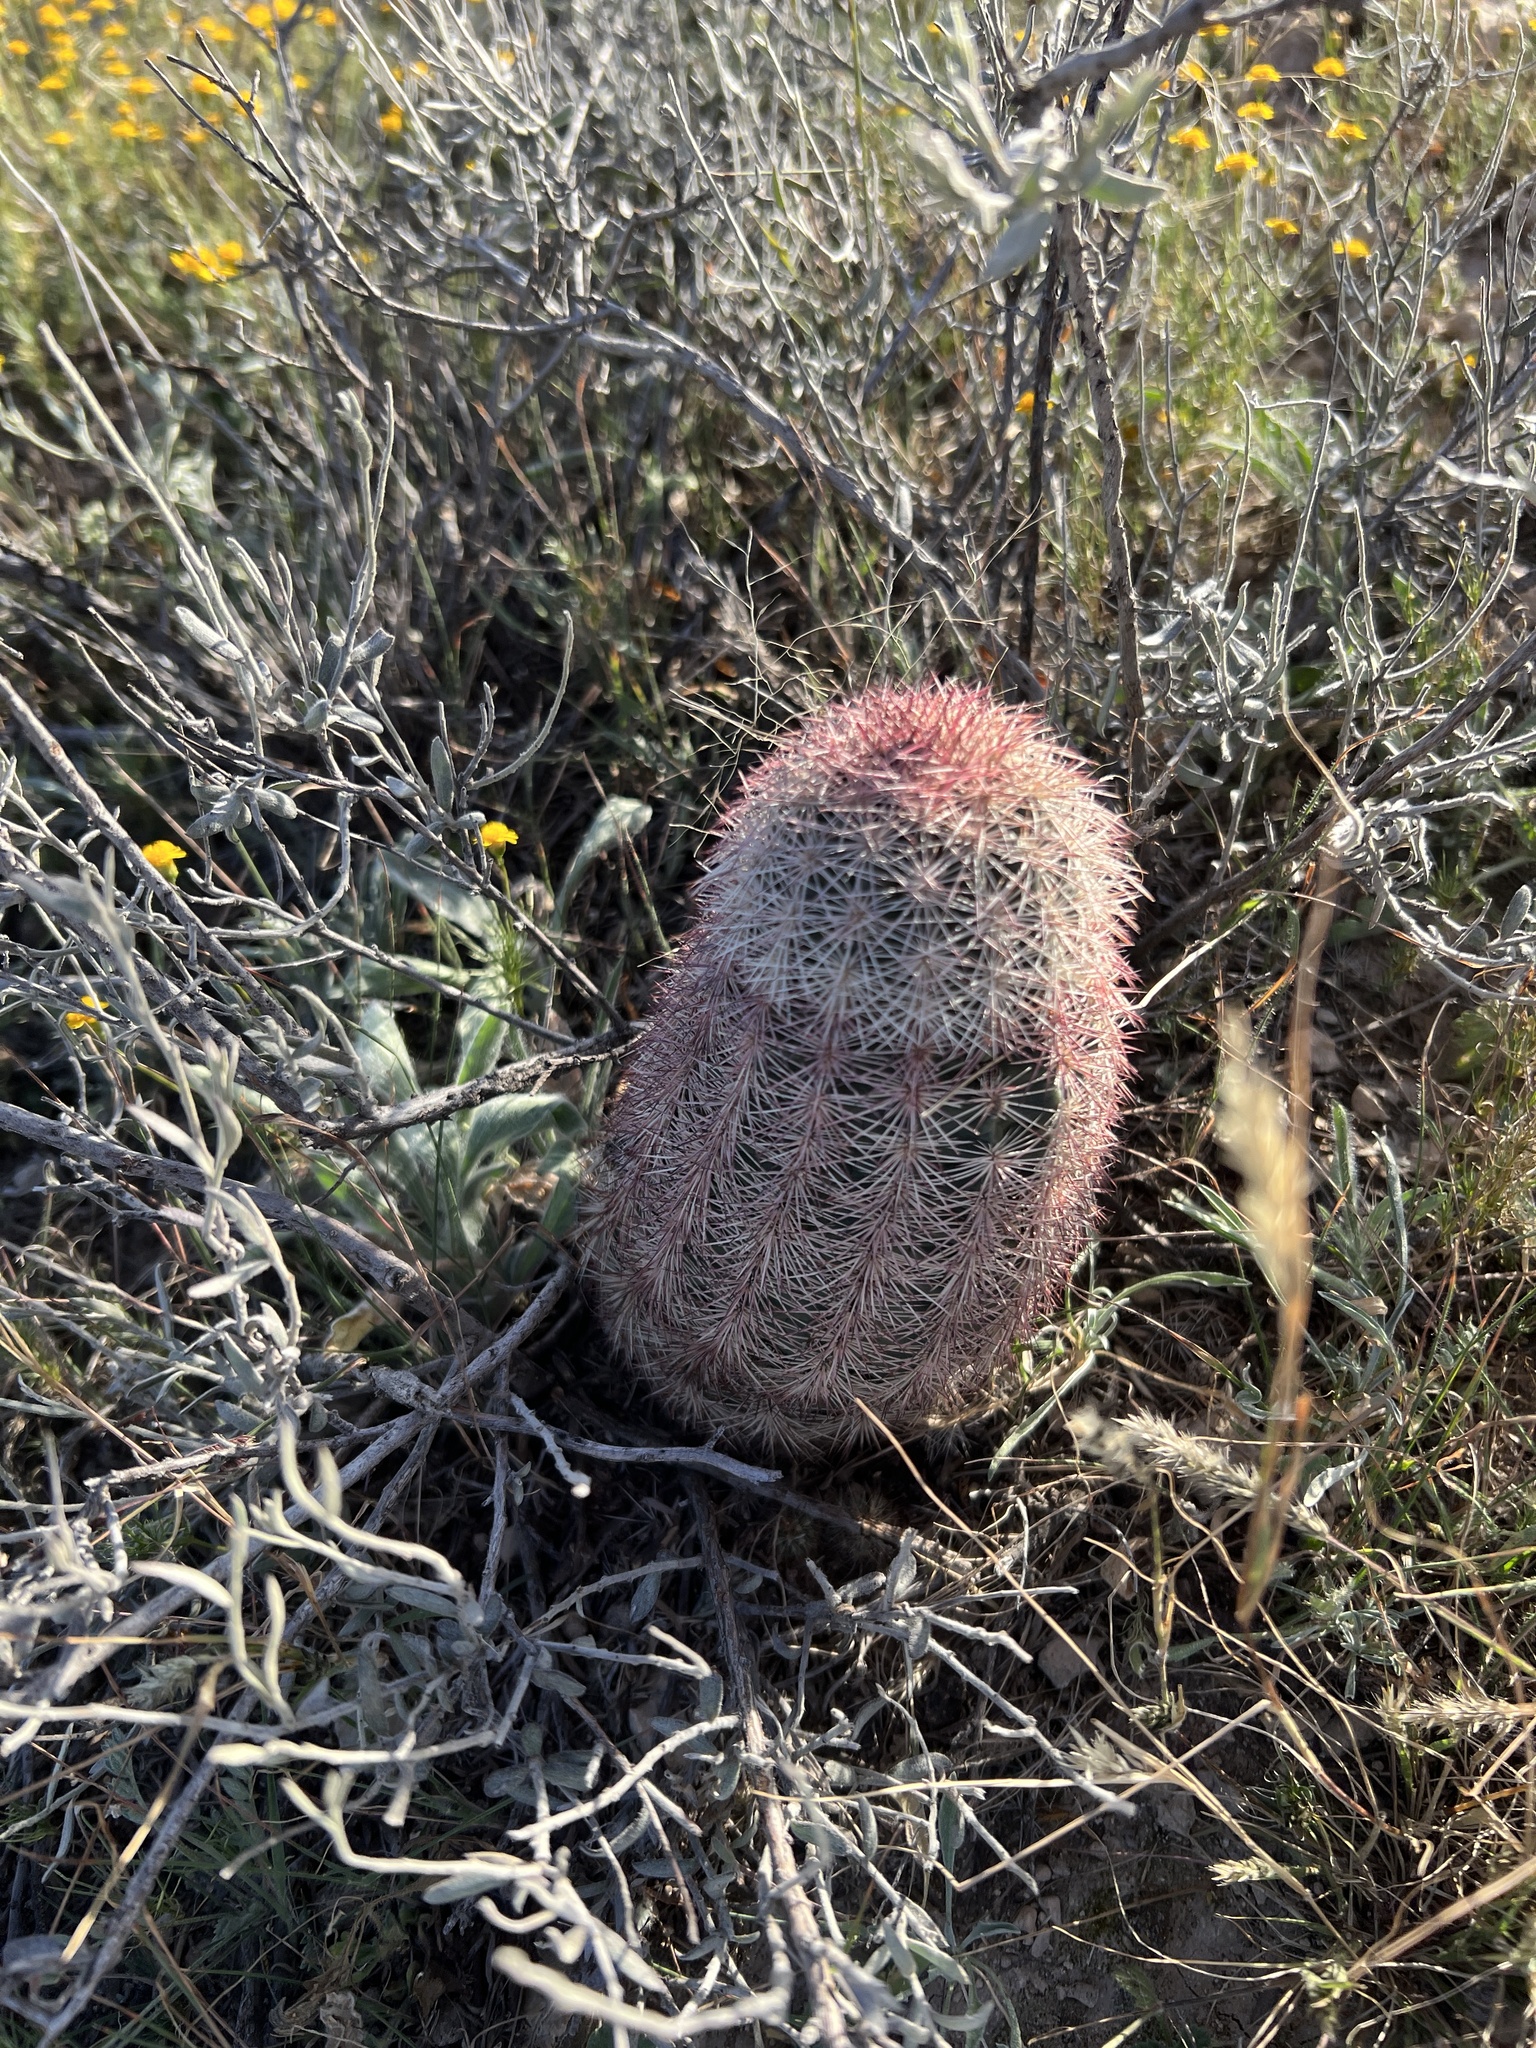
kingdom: Plantae
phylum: Tracheophyta
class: Magnoliopsida
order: Caryophyllales
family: Cactaceae
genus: Echinocereus
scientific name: Echinocereus dasyacanthus
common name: Spiny hedgehog cactus
